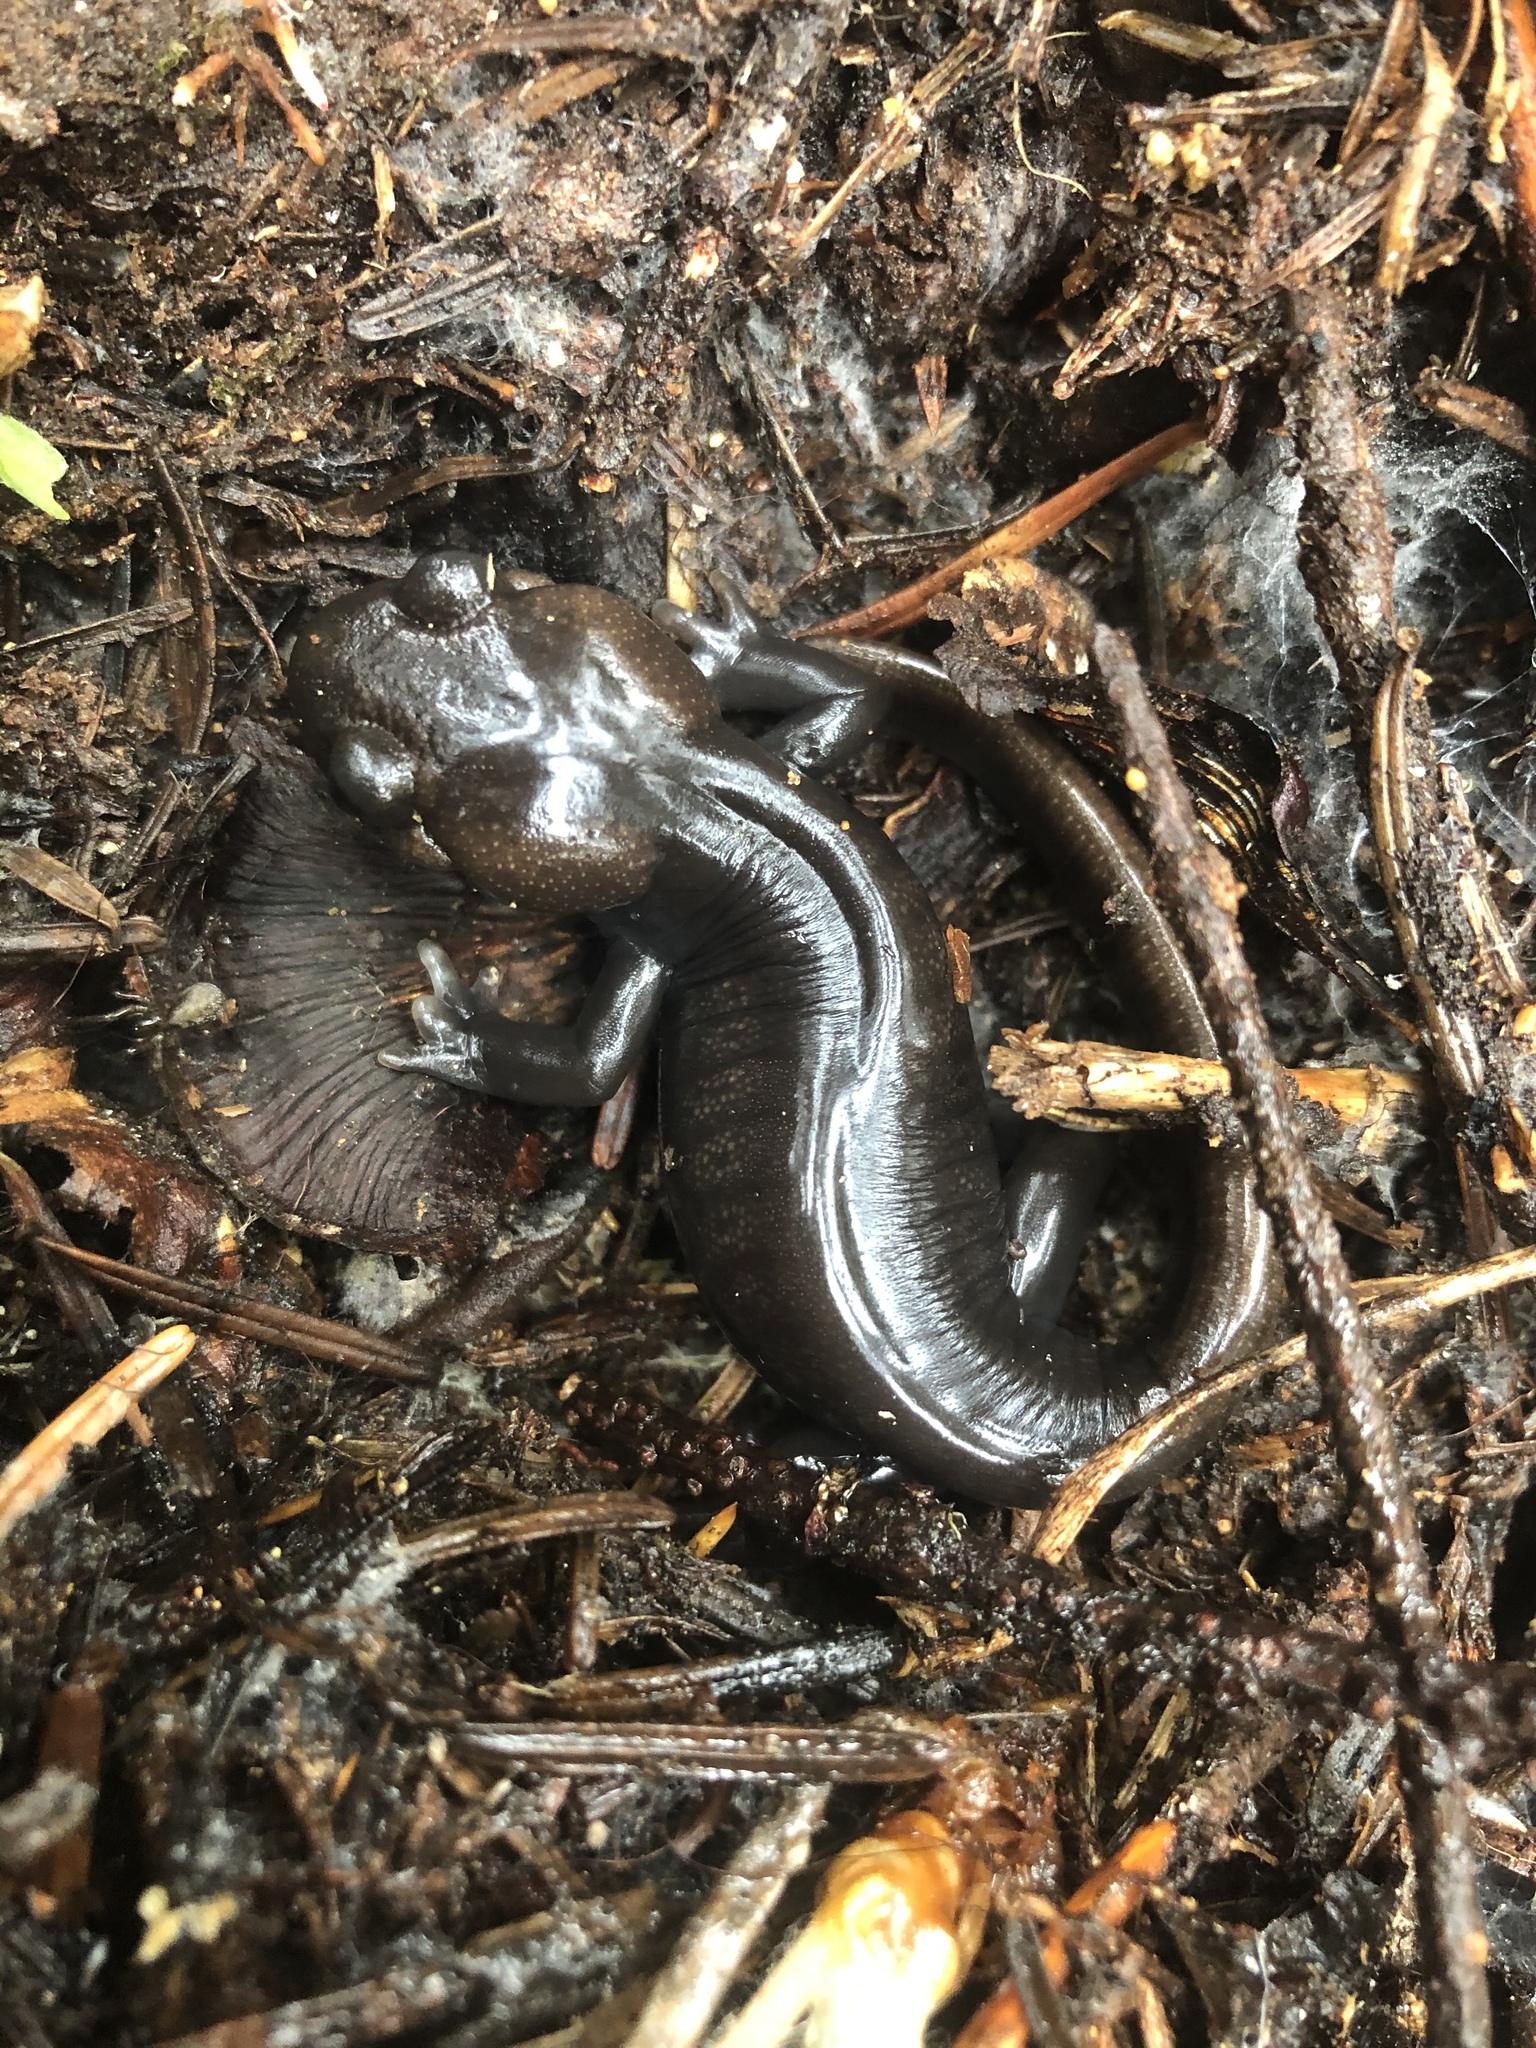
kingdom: Animalia
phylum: Chordata
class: Amphibia
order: Caudata
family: Ambystomatidae
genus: Ambystoma
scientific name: Ambystoma gracile
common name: Northwestern salamander
